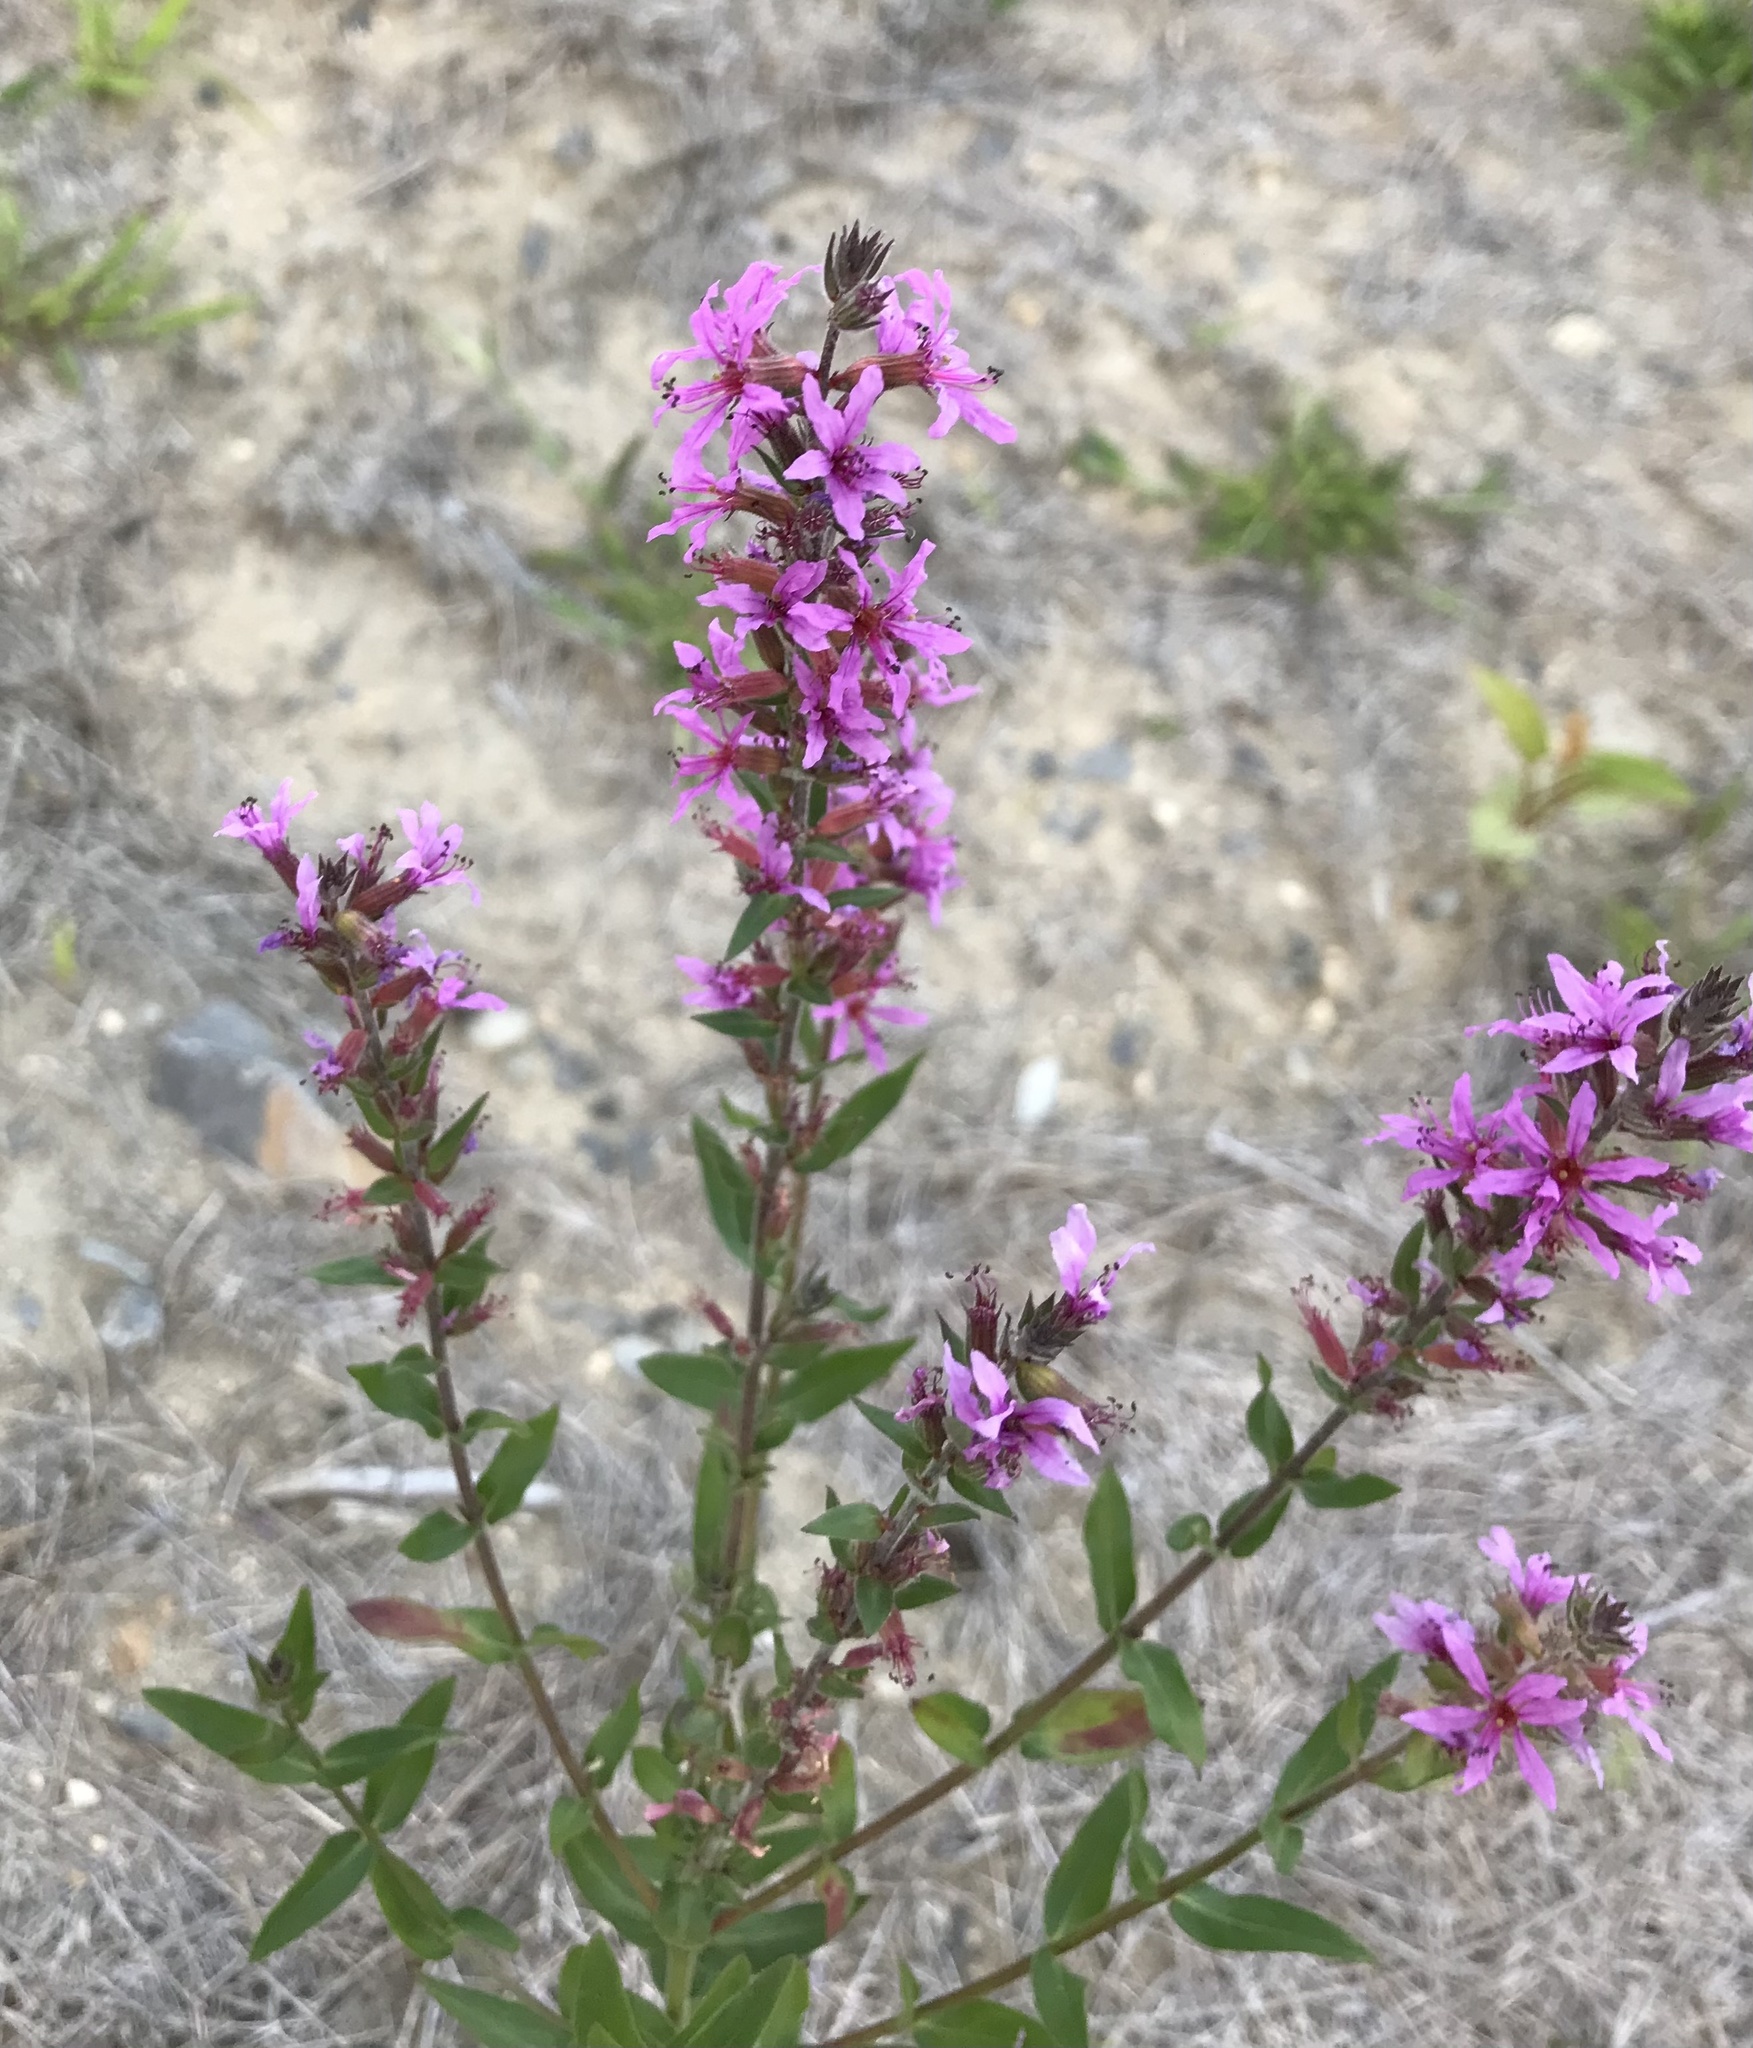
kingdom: Plantae
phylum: Tracheophyta
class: Magnoliopsida
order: Myrtales
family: Lythraceae
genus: Lythrum
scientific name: Lythrum salicaria
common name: Purple loosestrife
